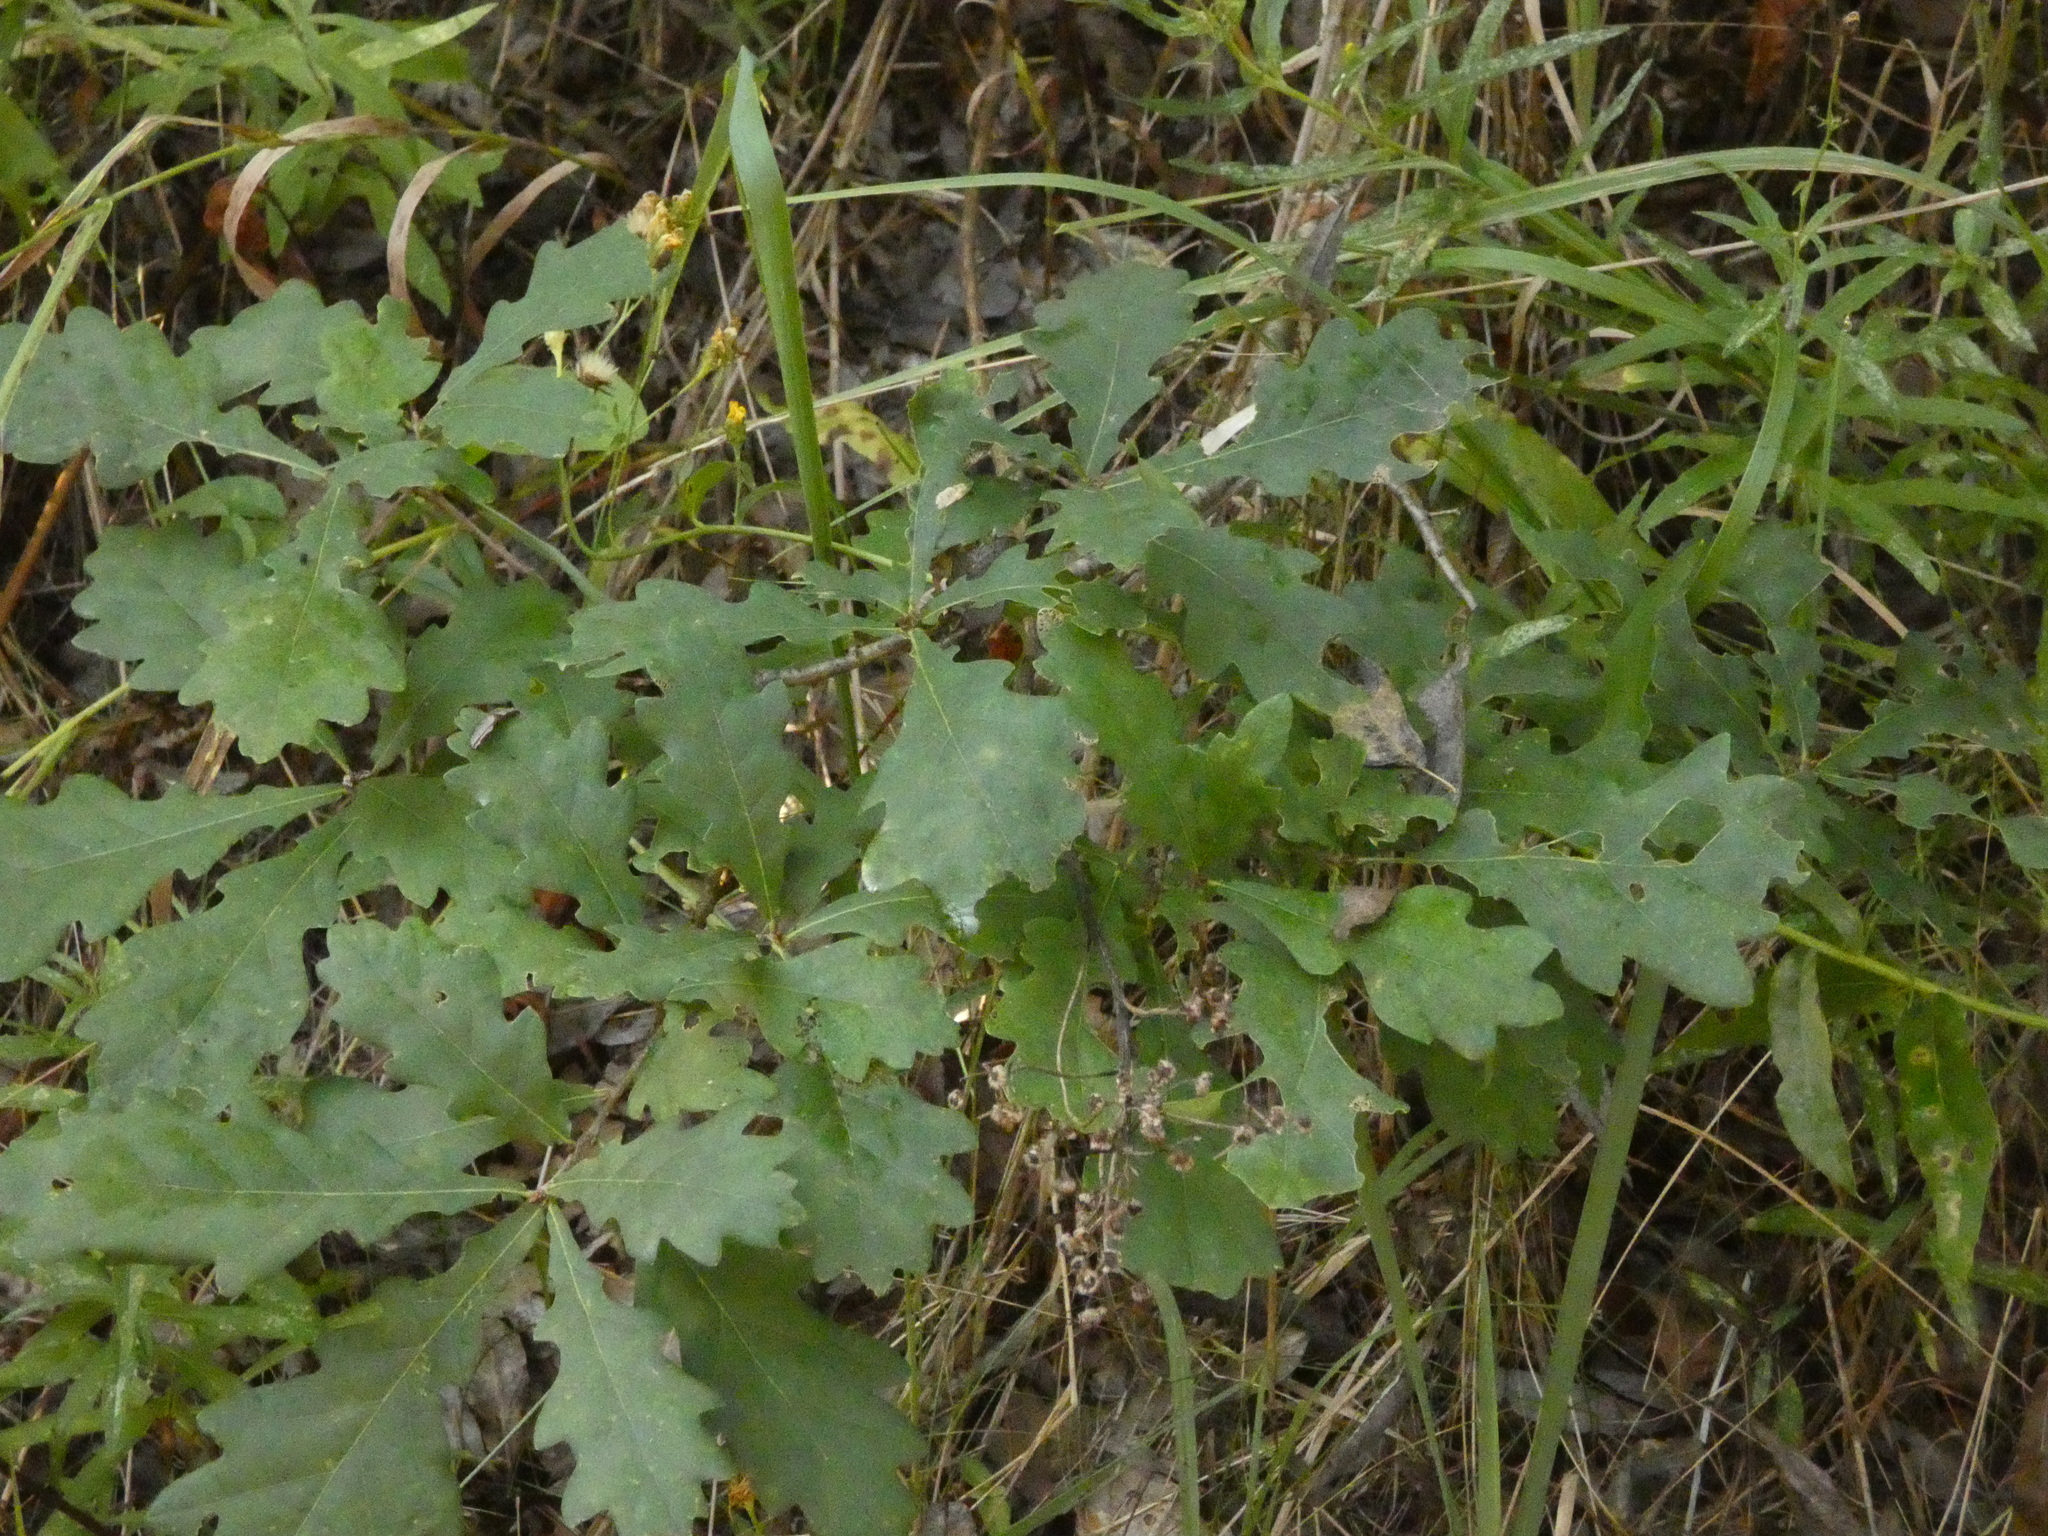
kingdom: Plantae
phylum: Tracheophyta
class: Magnoliopsida
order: Fagales
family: Fagaceae
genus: Quercus
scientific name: Quercus robur
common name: Pedunculate oak
